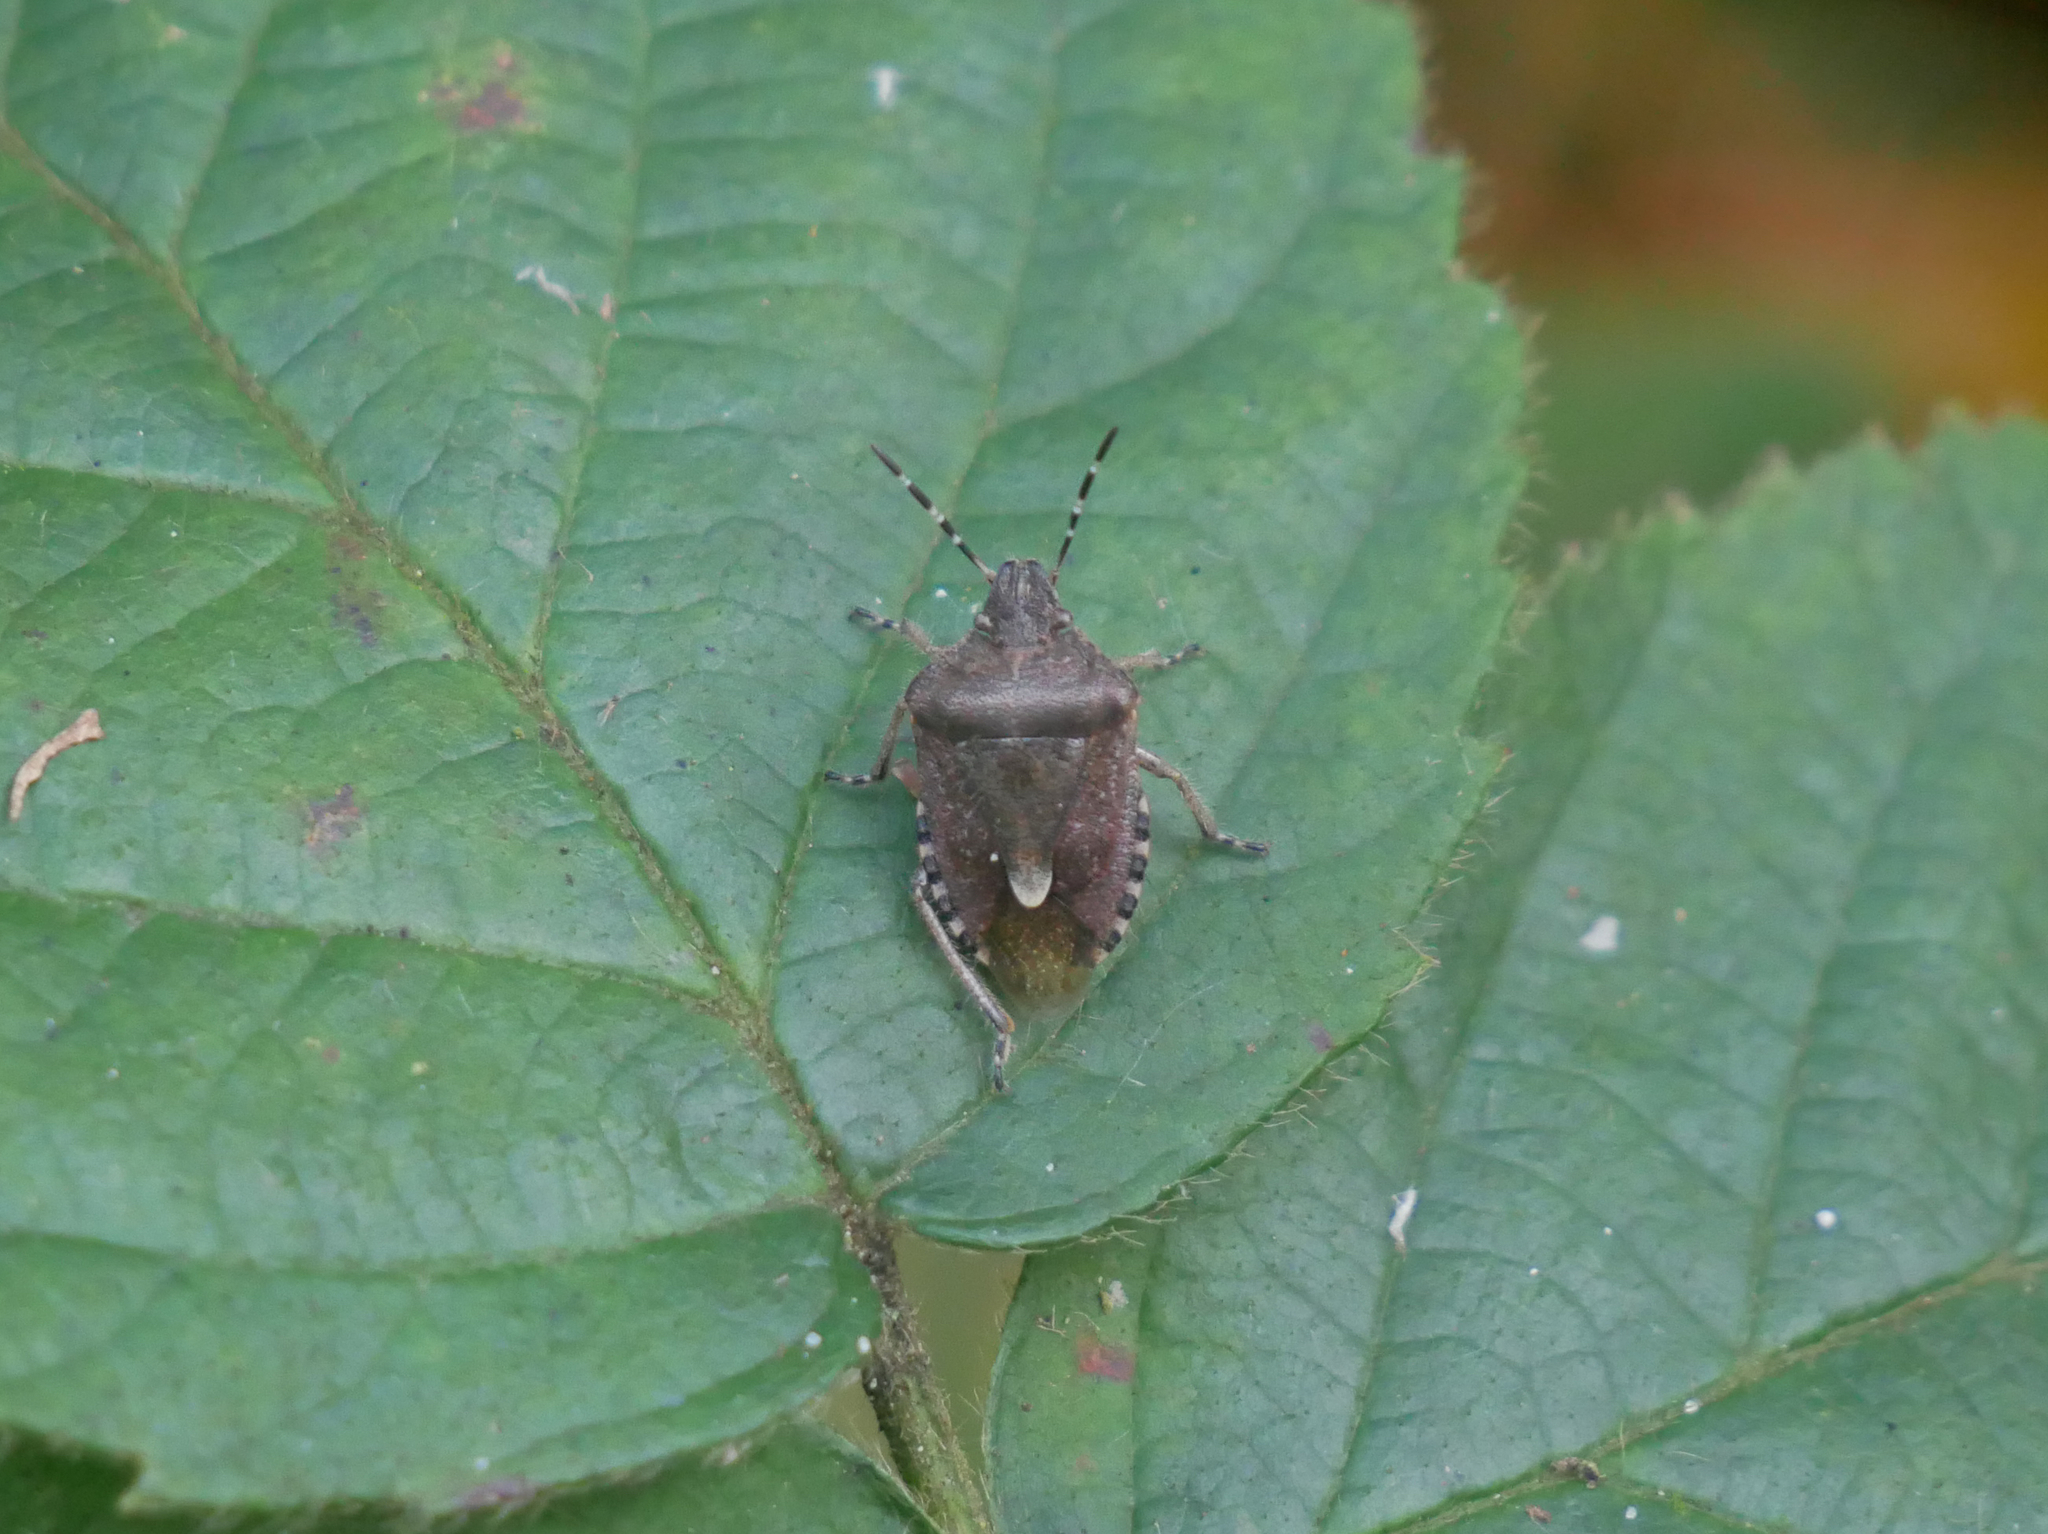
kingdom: Animalia
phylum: Arthropoda
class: Insecta
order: Hemiptera
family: Pentatomidae
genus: Dolycoris
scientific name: Dolycoris baccarum
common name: Sloe bug
